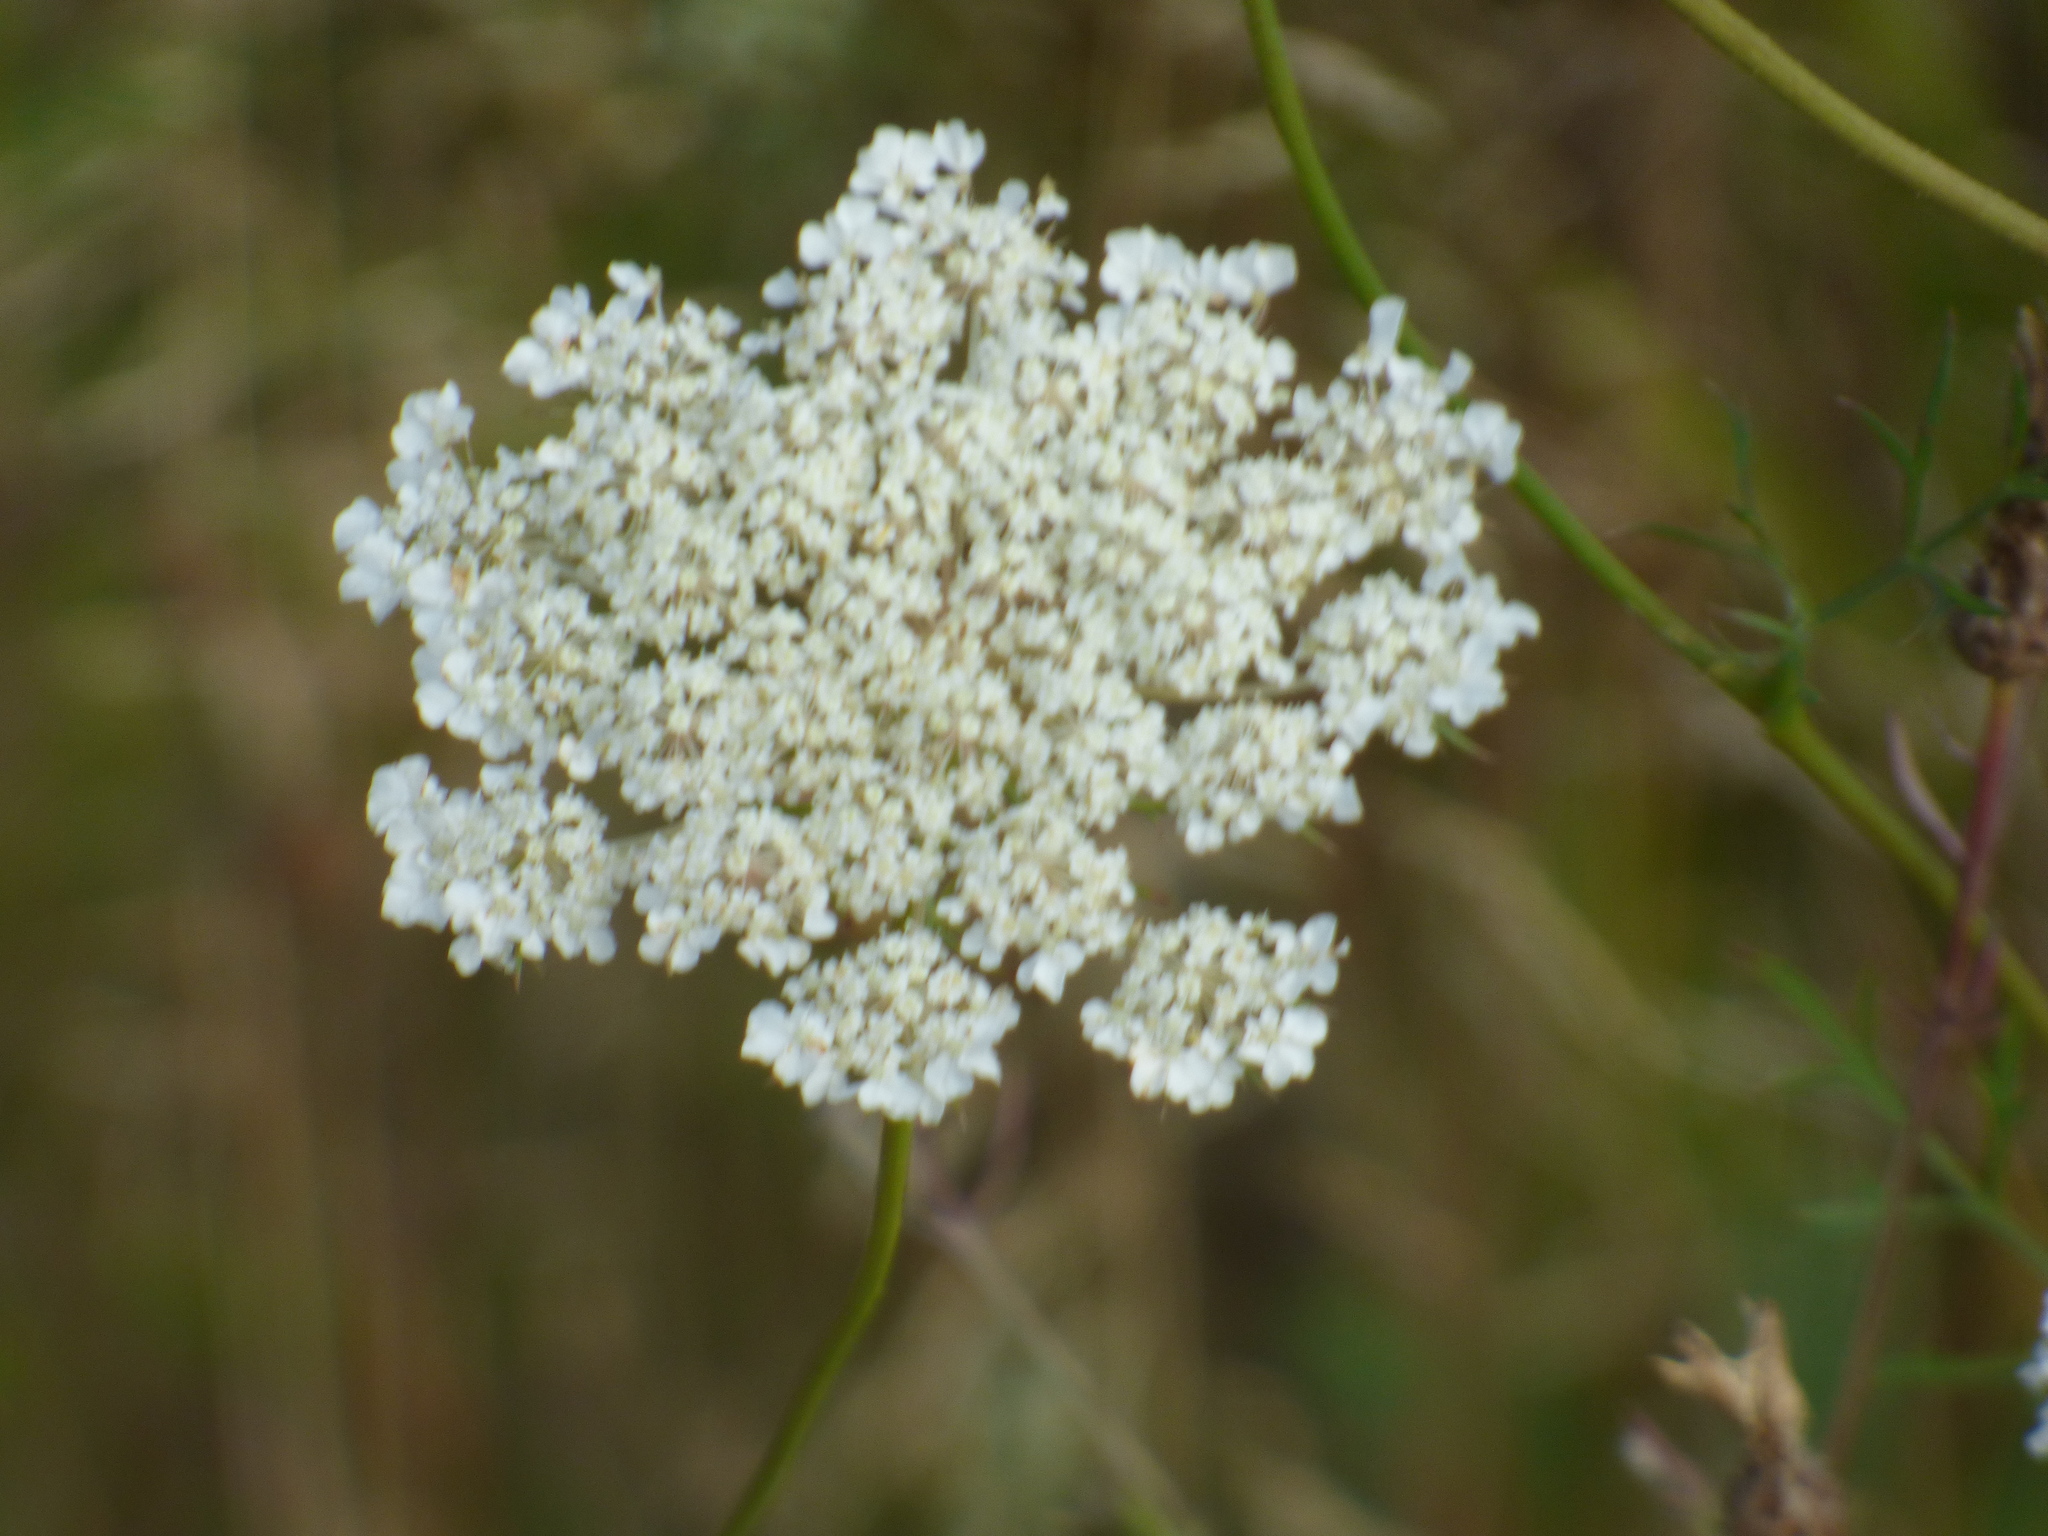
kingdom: Plantae
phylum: Tracheophyta
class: Magnoliopsida
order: Apiales
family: Apiaceae
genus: Daucus
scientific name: Daucus carota
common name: Wild carrot
